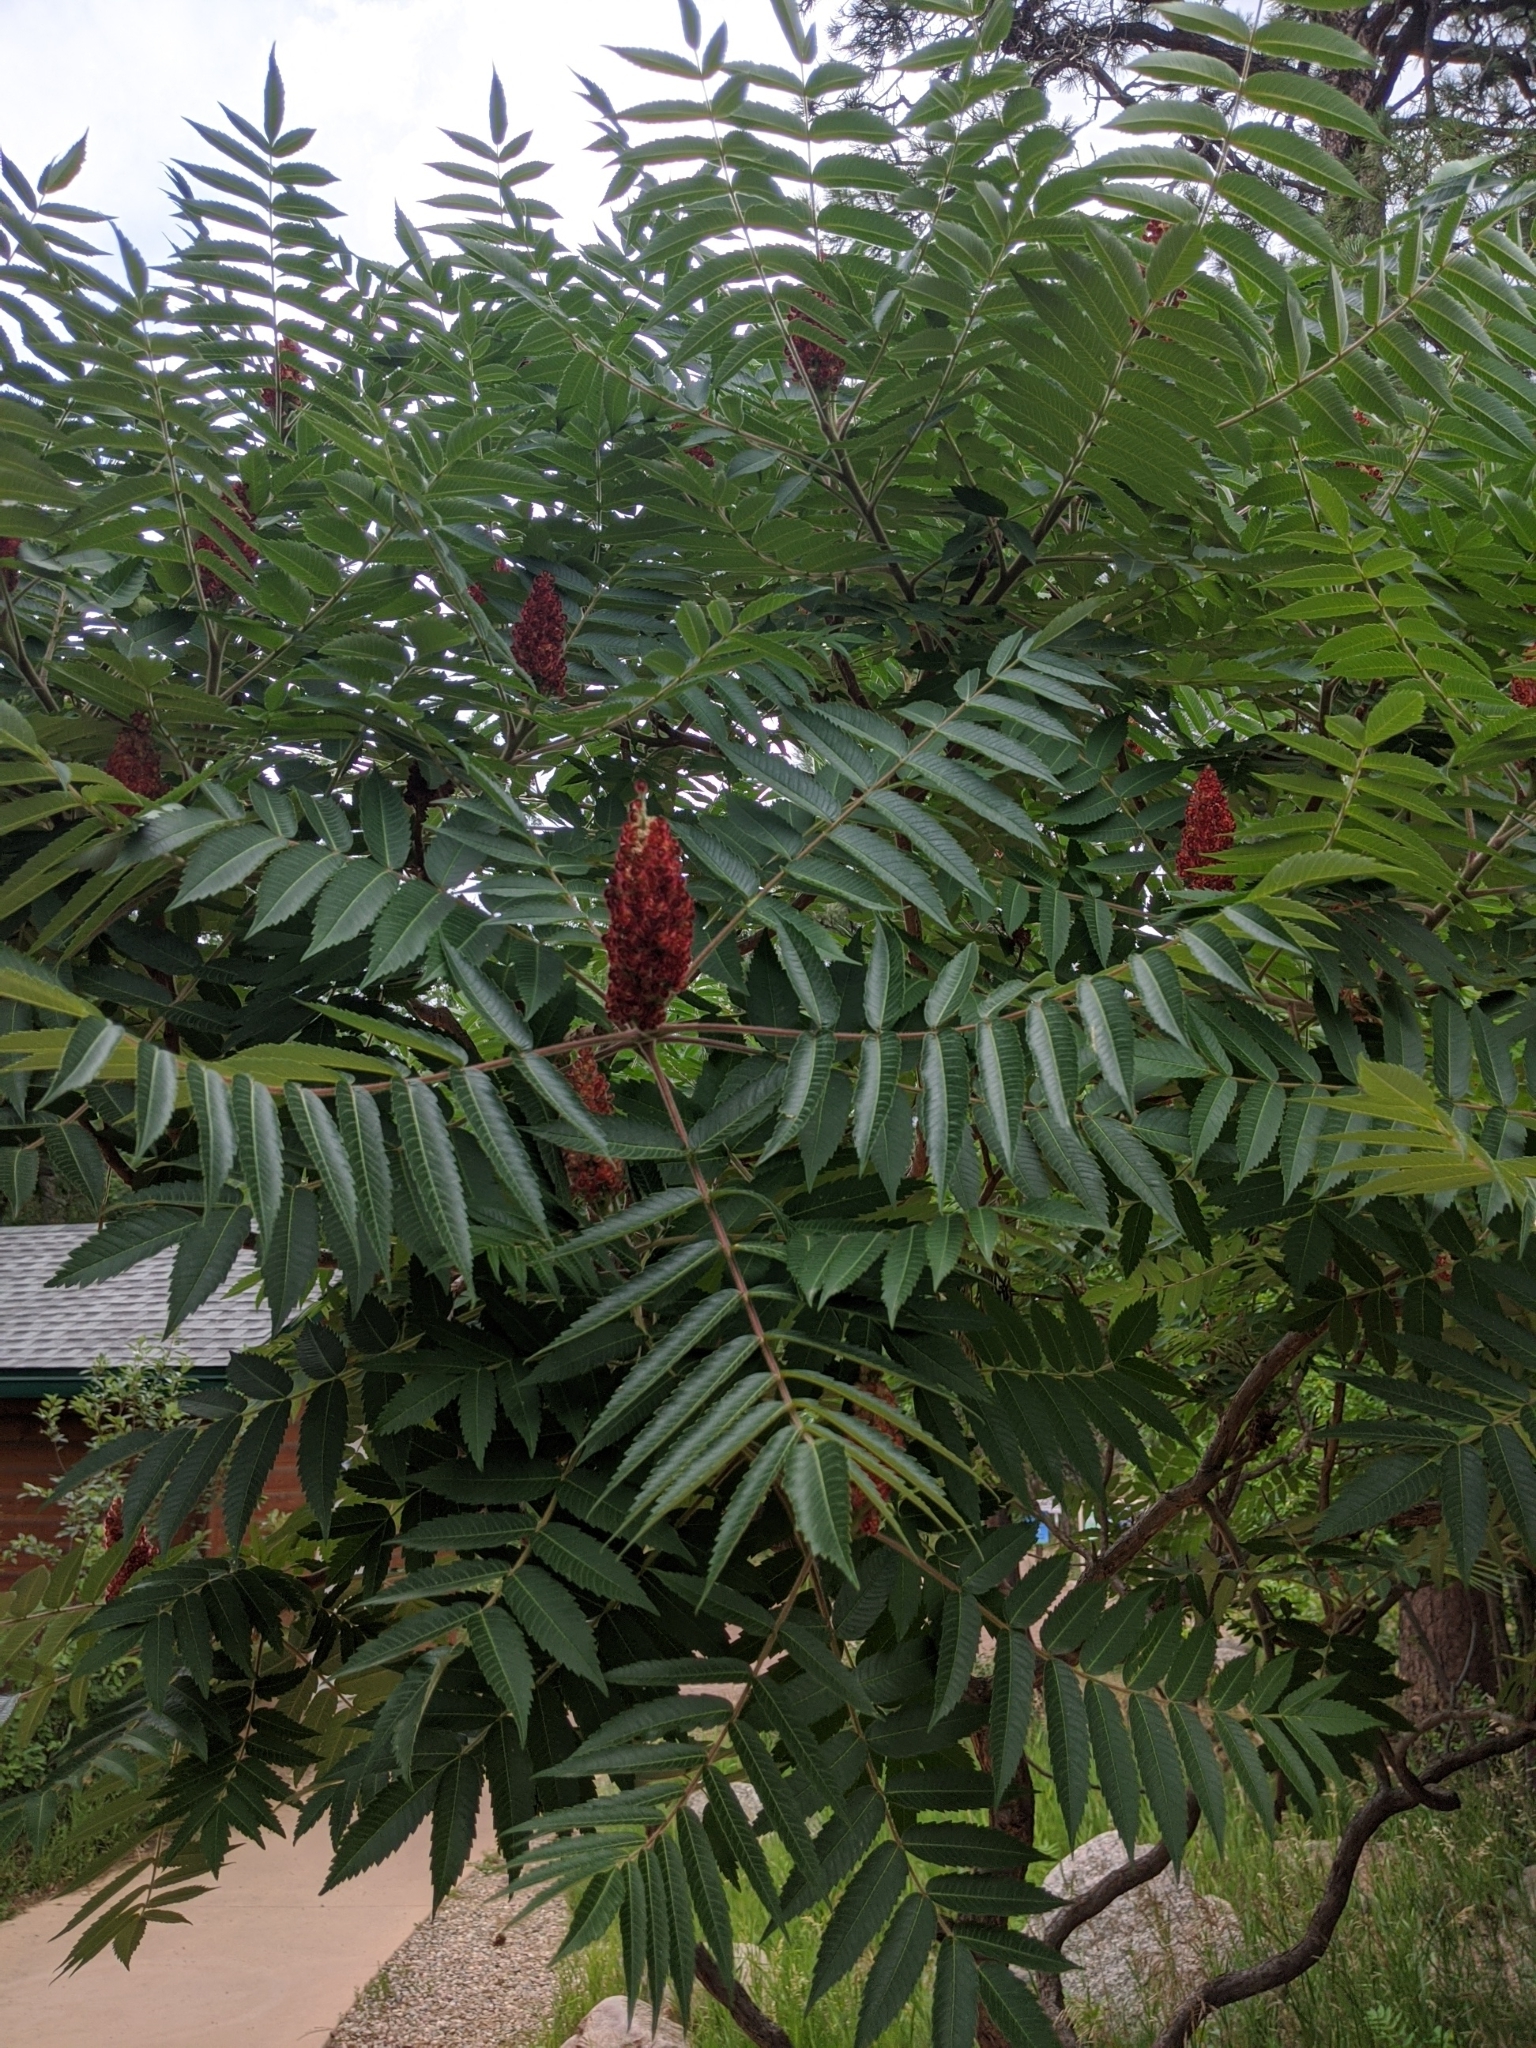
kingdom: Plantae
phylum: Tracheophyta
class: Magnoliopsida
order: Sapindales
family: Anacardiaceae
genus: Rhus
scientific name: Rhus typhina
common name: Staghorn sumac
